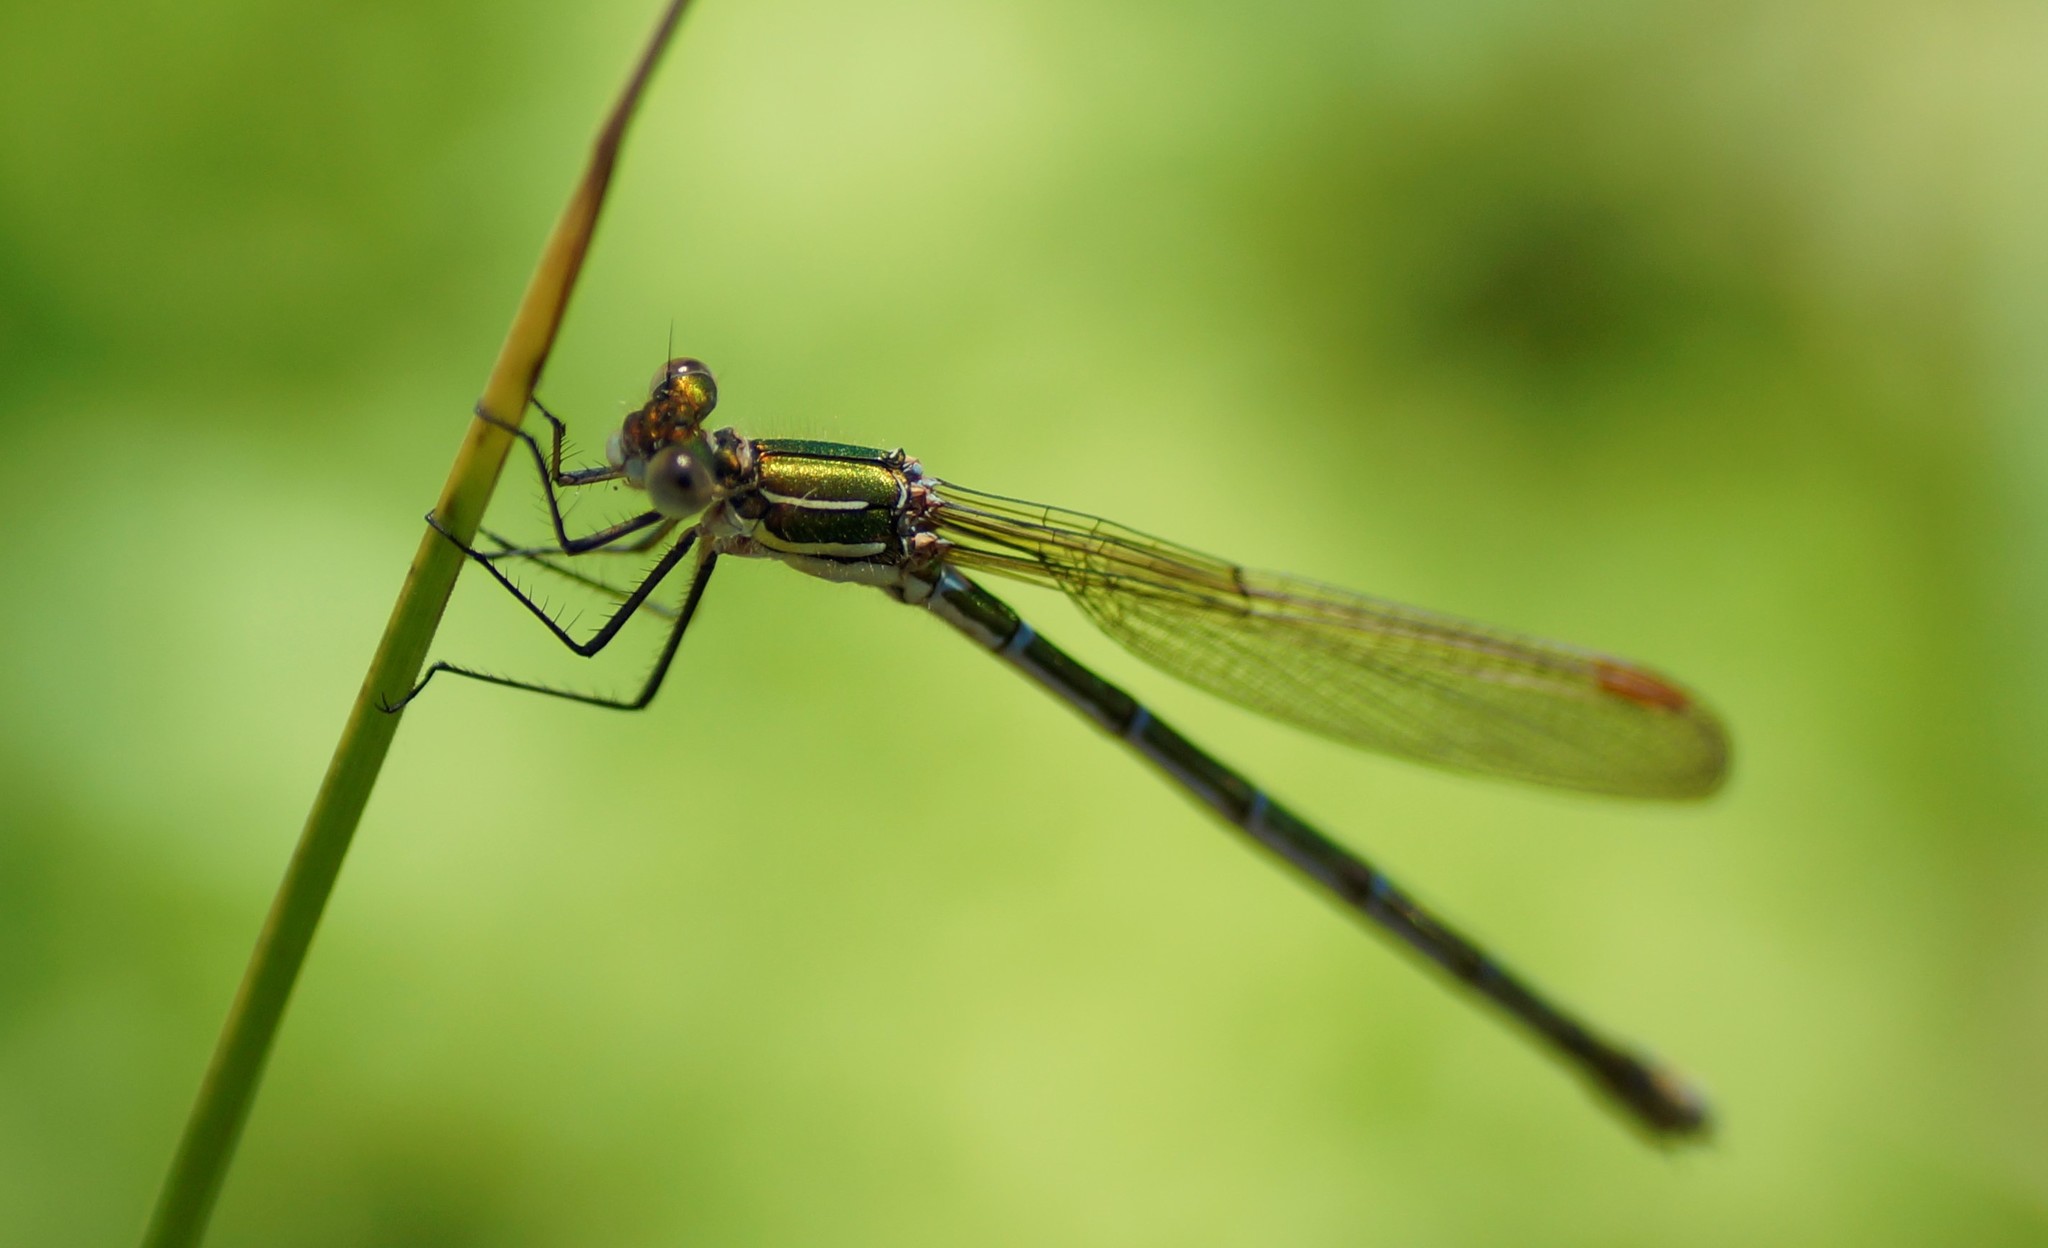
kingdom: Animalia
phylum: Arthropoda
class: Insecta
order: Odonata
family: Lestidae
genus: Austrolestes
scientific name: Austrolestes cingulatus
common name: Metallic ringtail
